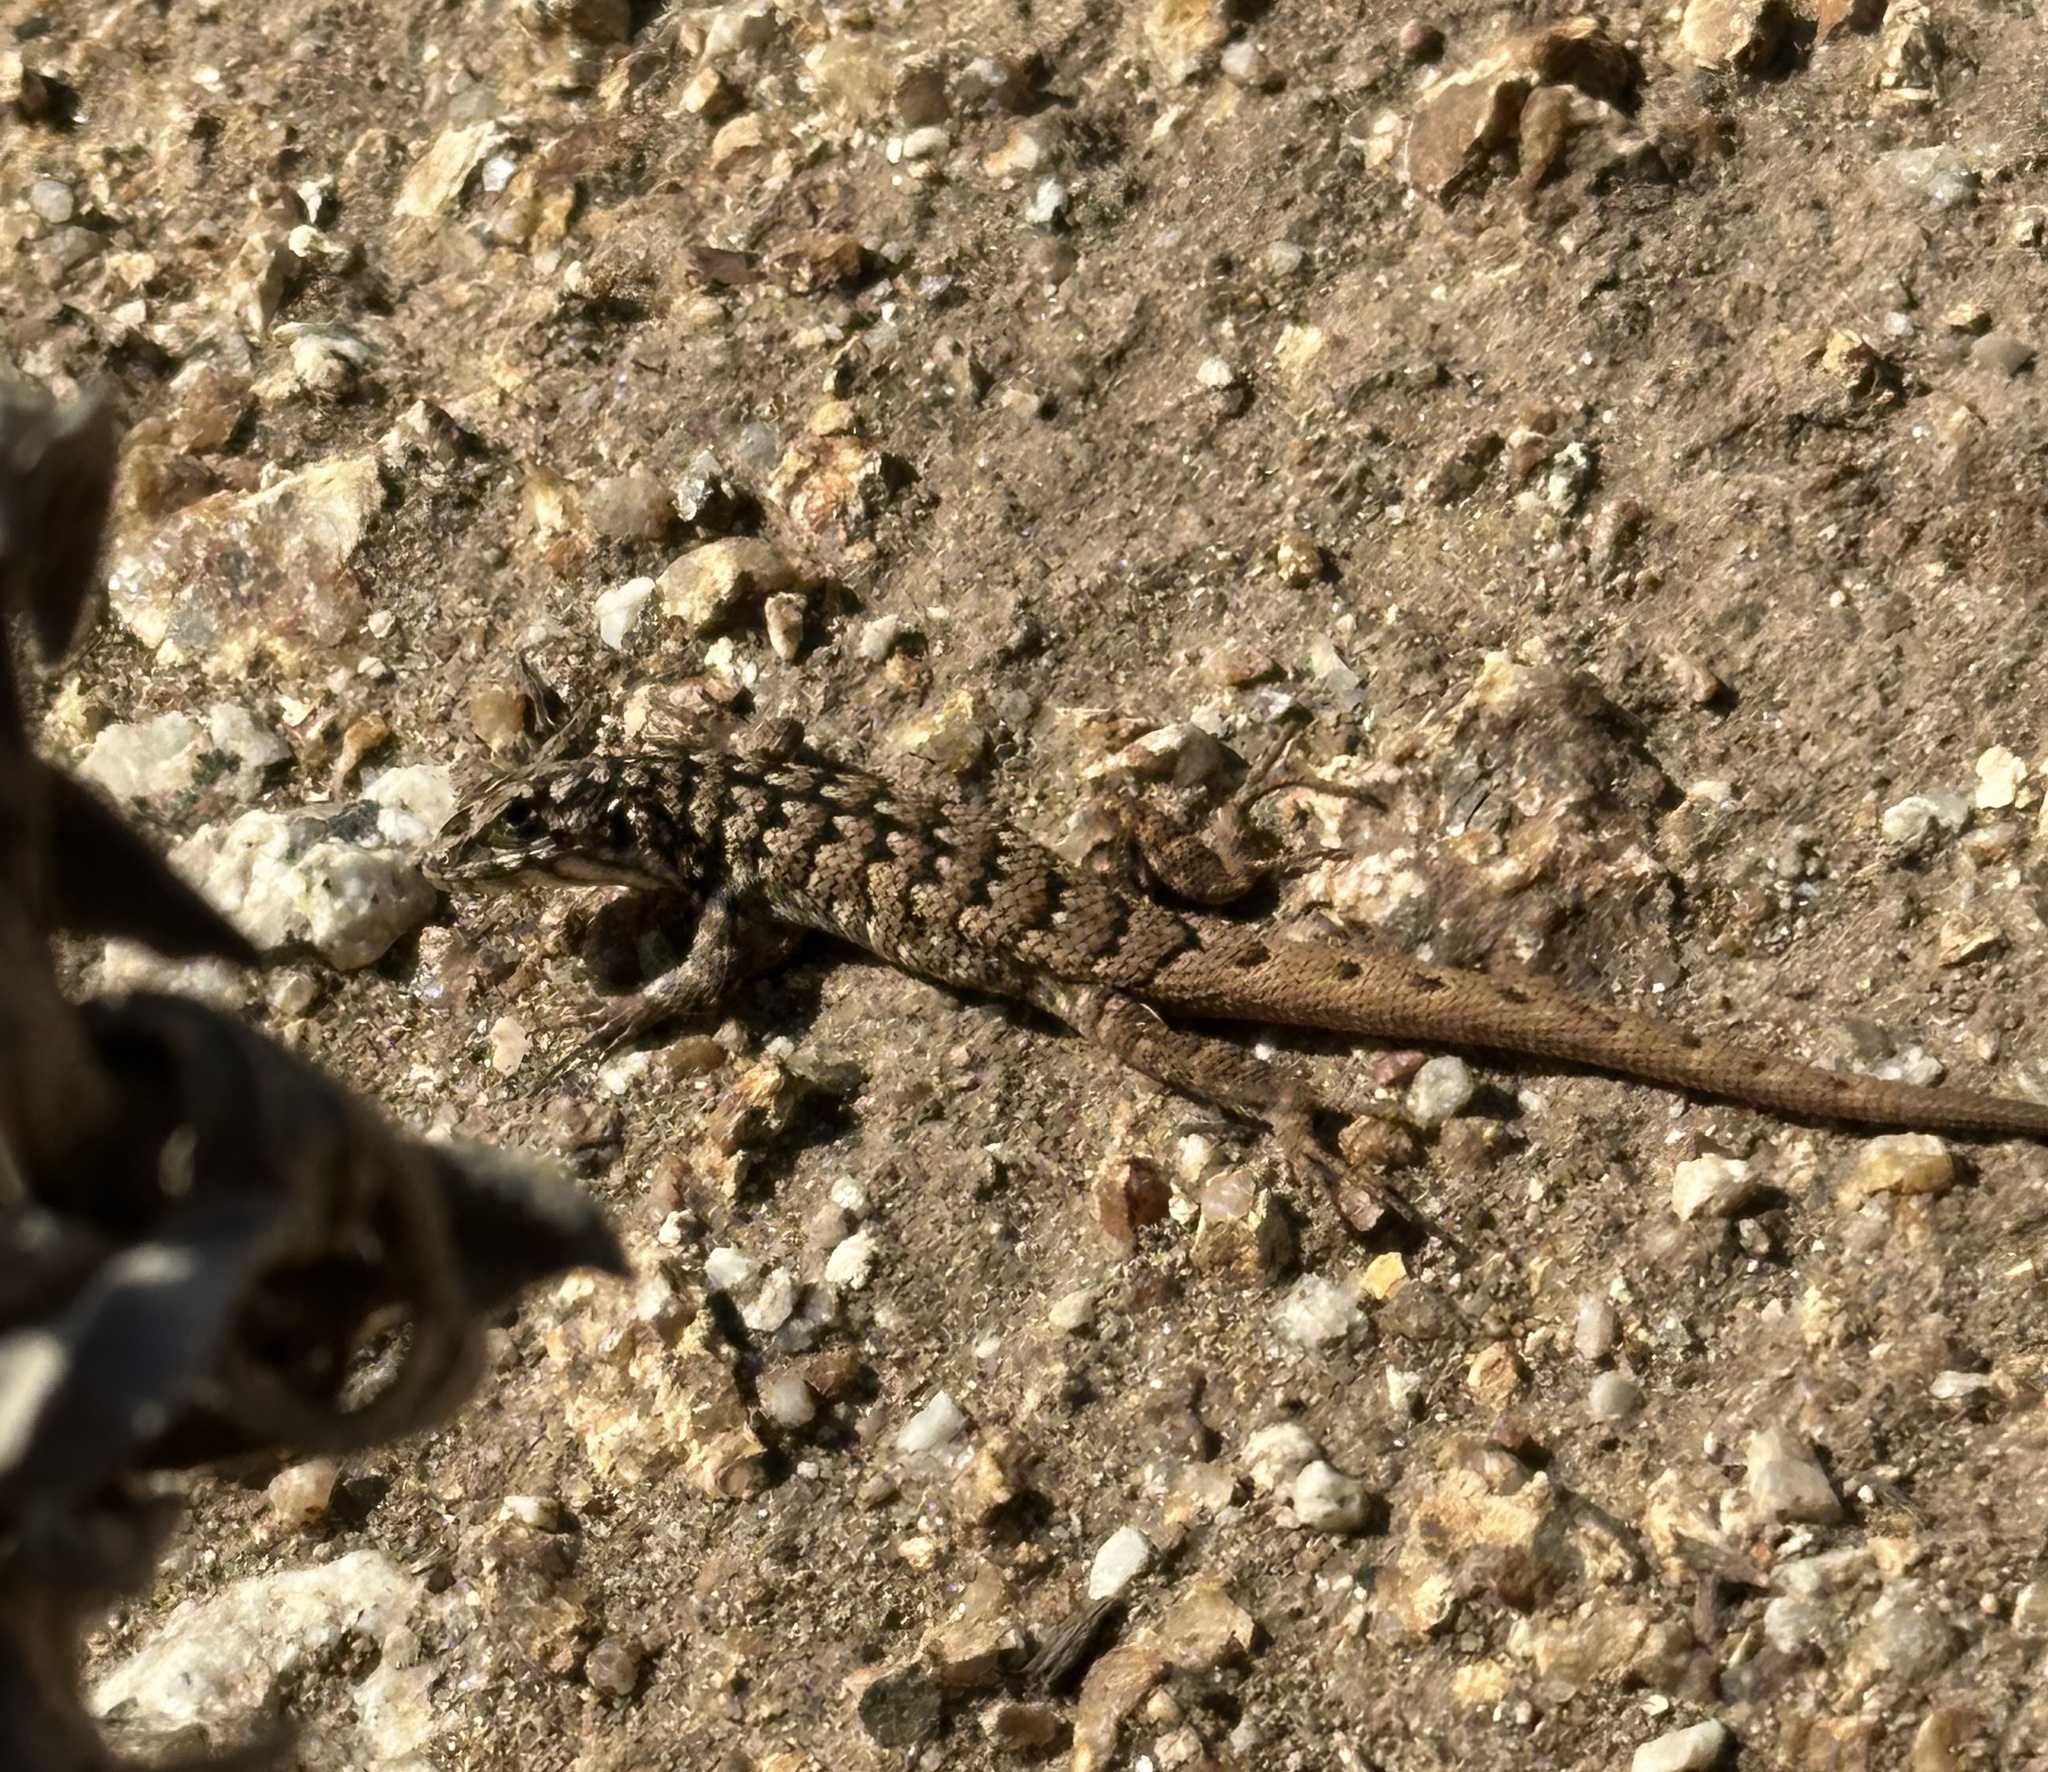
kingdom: Animalia
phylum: Chordata
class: Squamata
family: Liolaemidae
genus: Liolaemus
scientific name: Liolaemus nitidus
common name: Shining tree iguana
